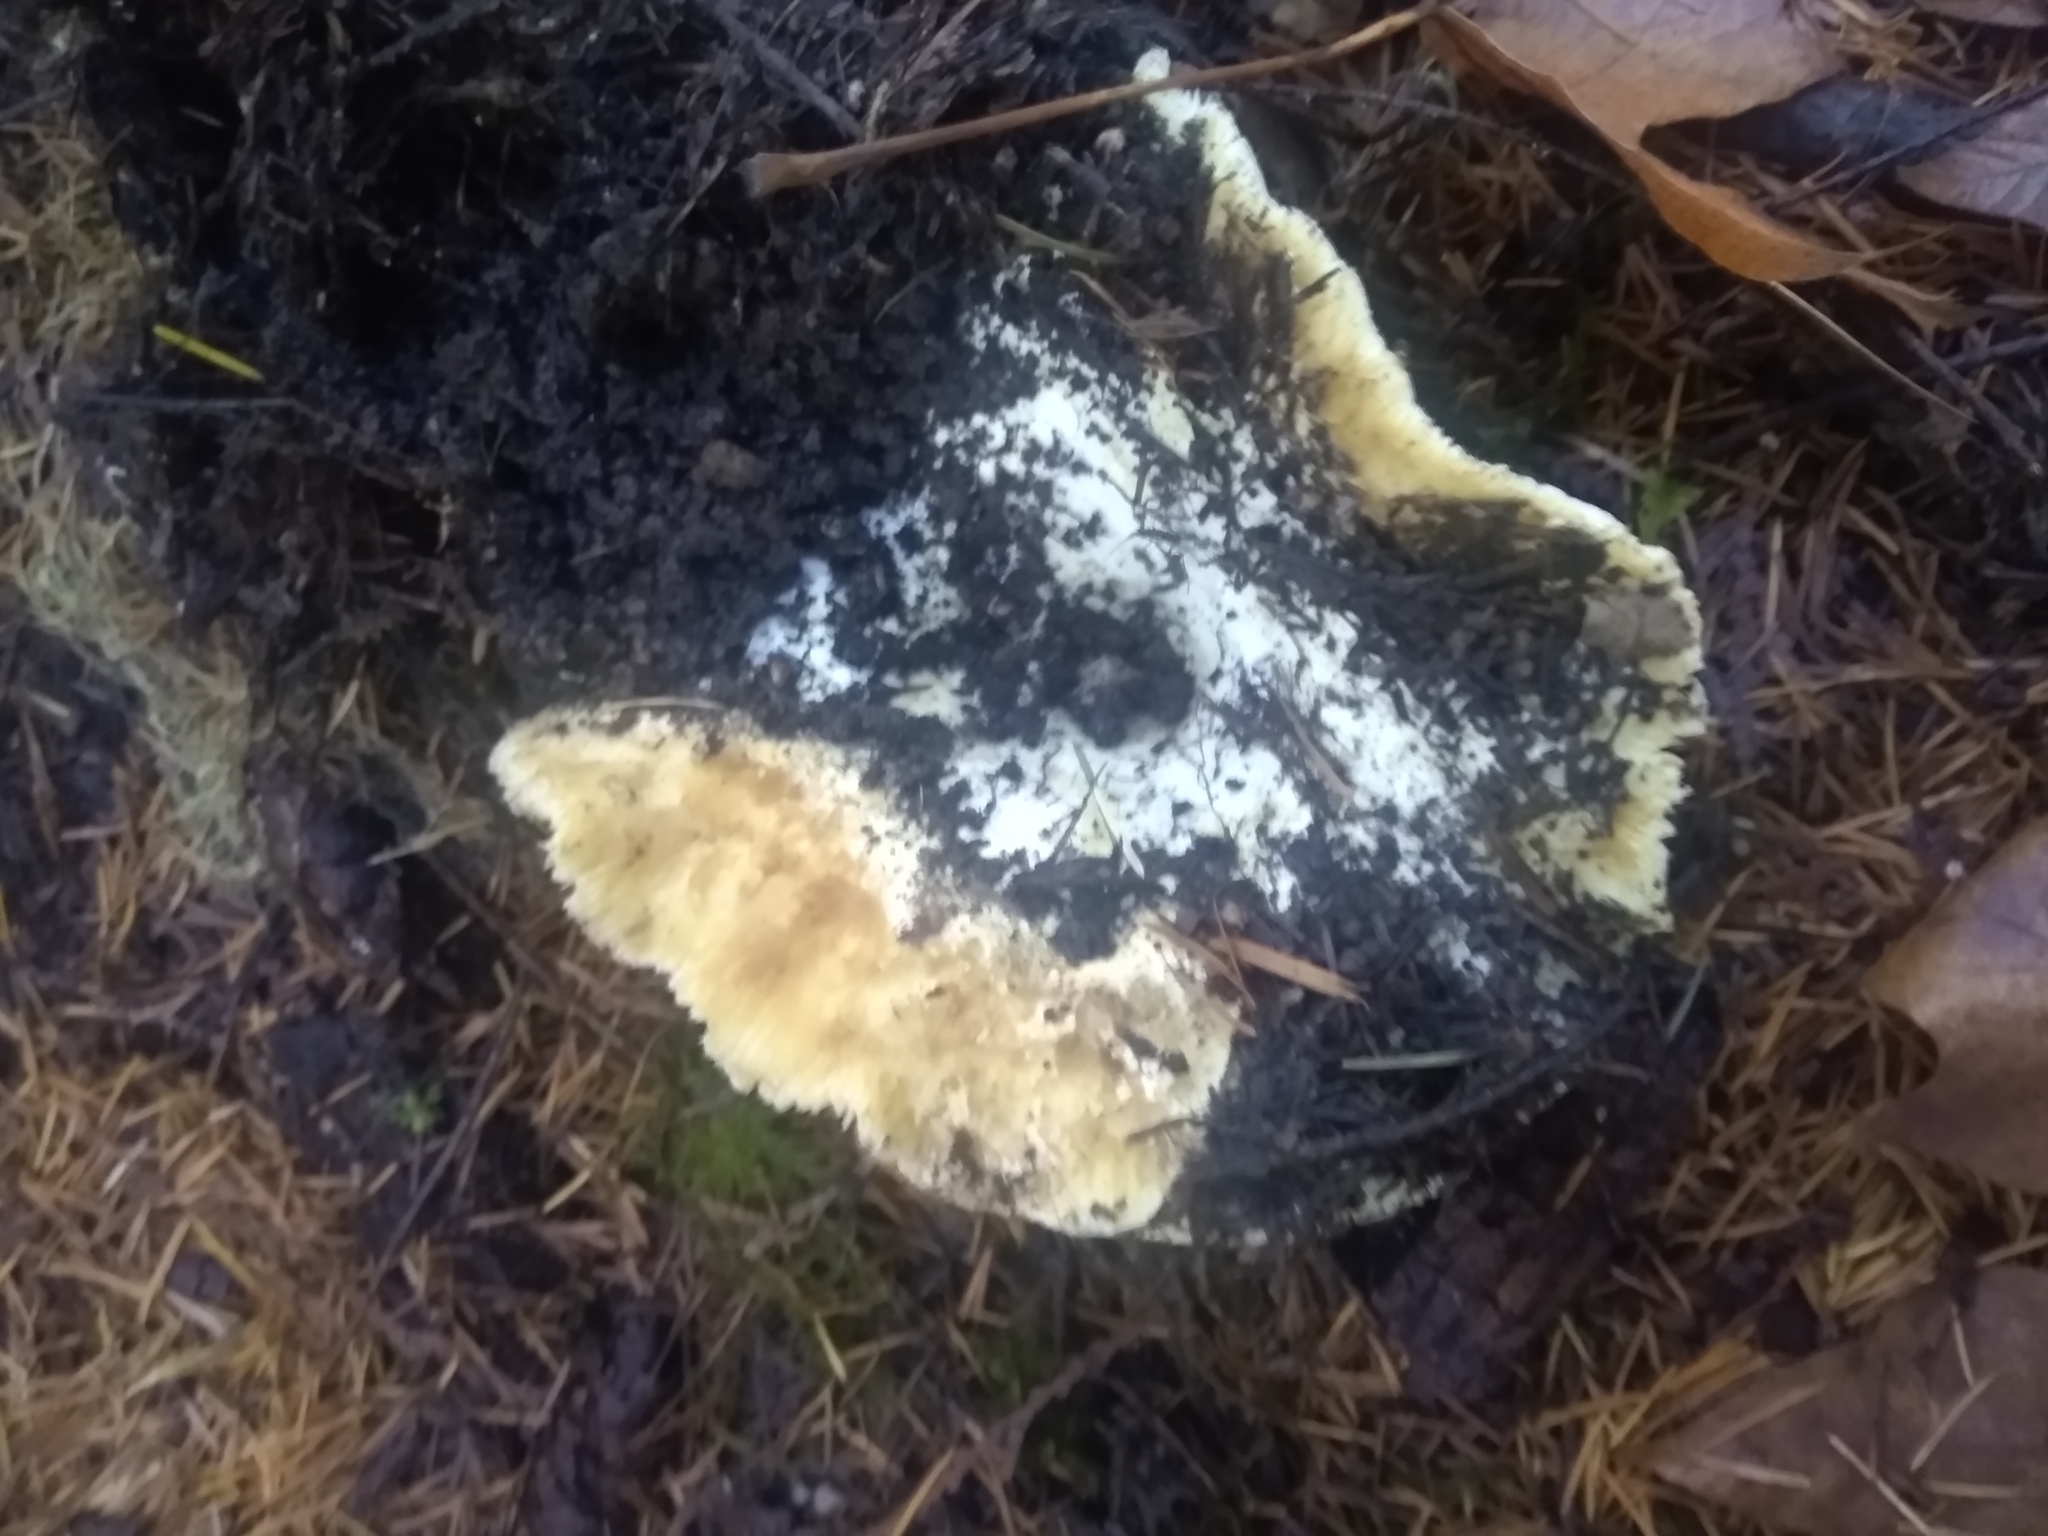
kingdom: Fungi
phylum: Basidiomycota
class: Agaricomycetes
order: Russulales
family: Russulaceae
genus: Russula
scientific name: Russula brevipes
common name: Short-stemmed russula
